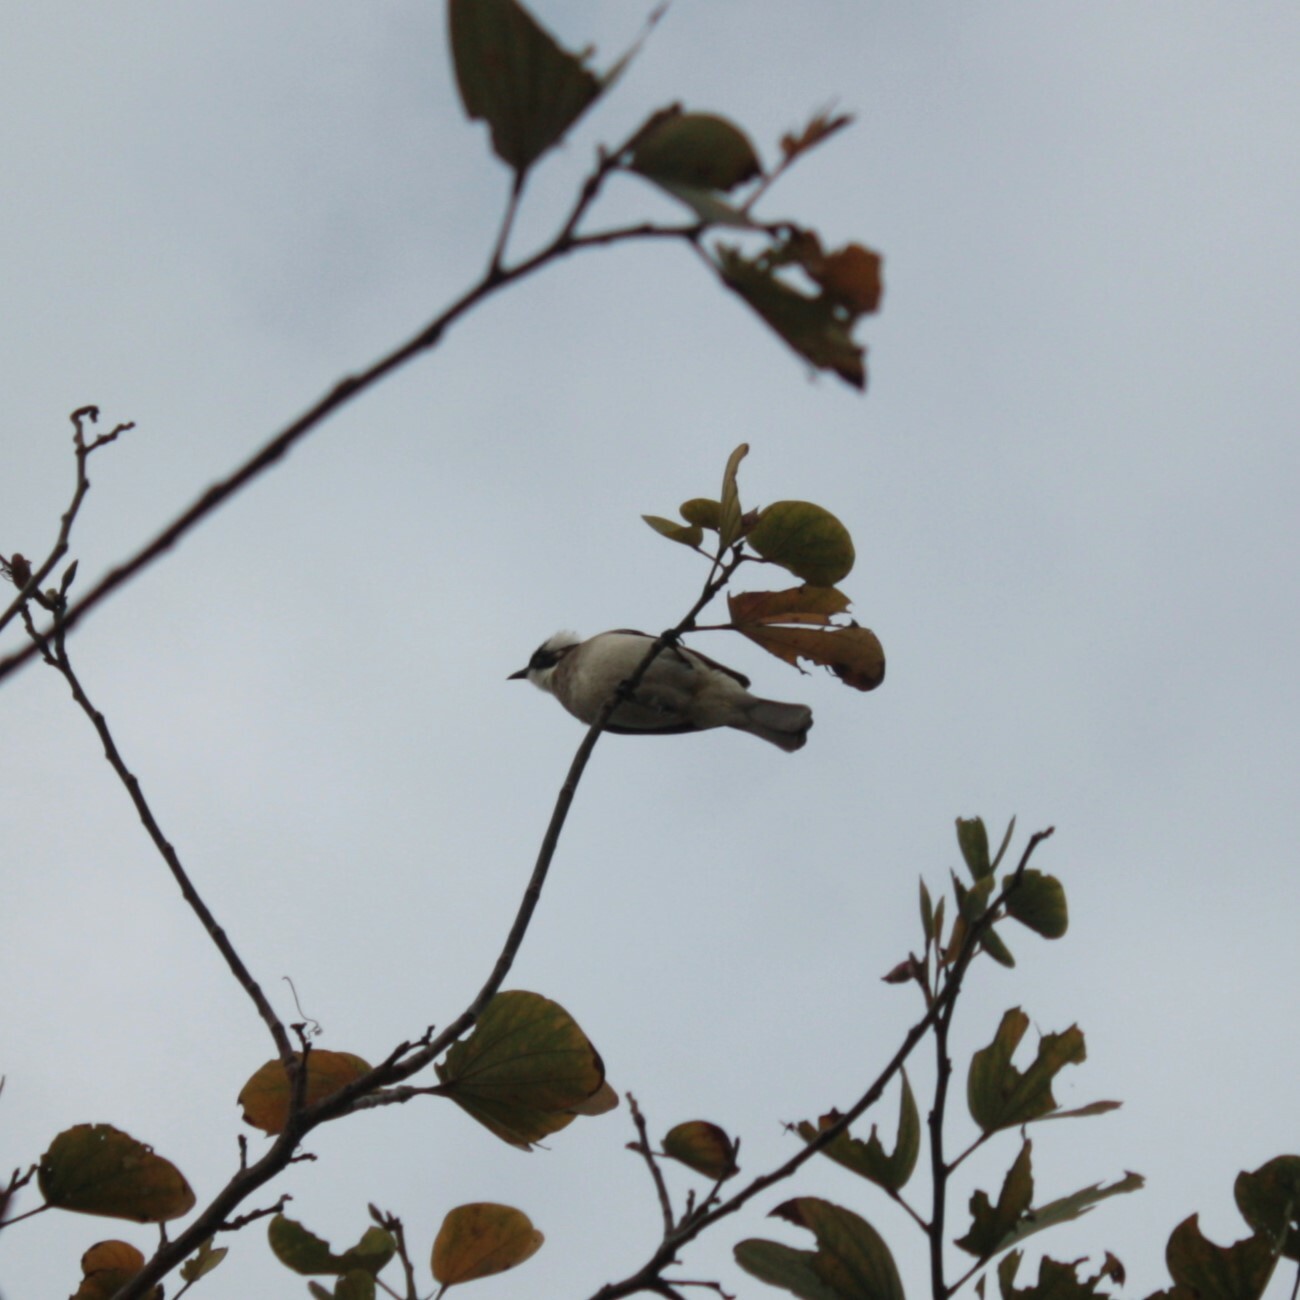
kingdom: Animalia
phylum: Chordata
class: Aves
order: Passeriformes
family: Pycnonotidae
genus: Pycnonotus
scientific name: Pycnonotus sinensis
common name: Light-vented bulbul
